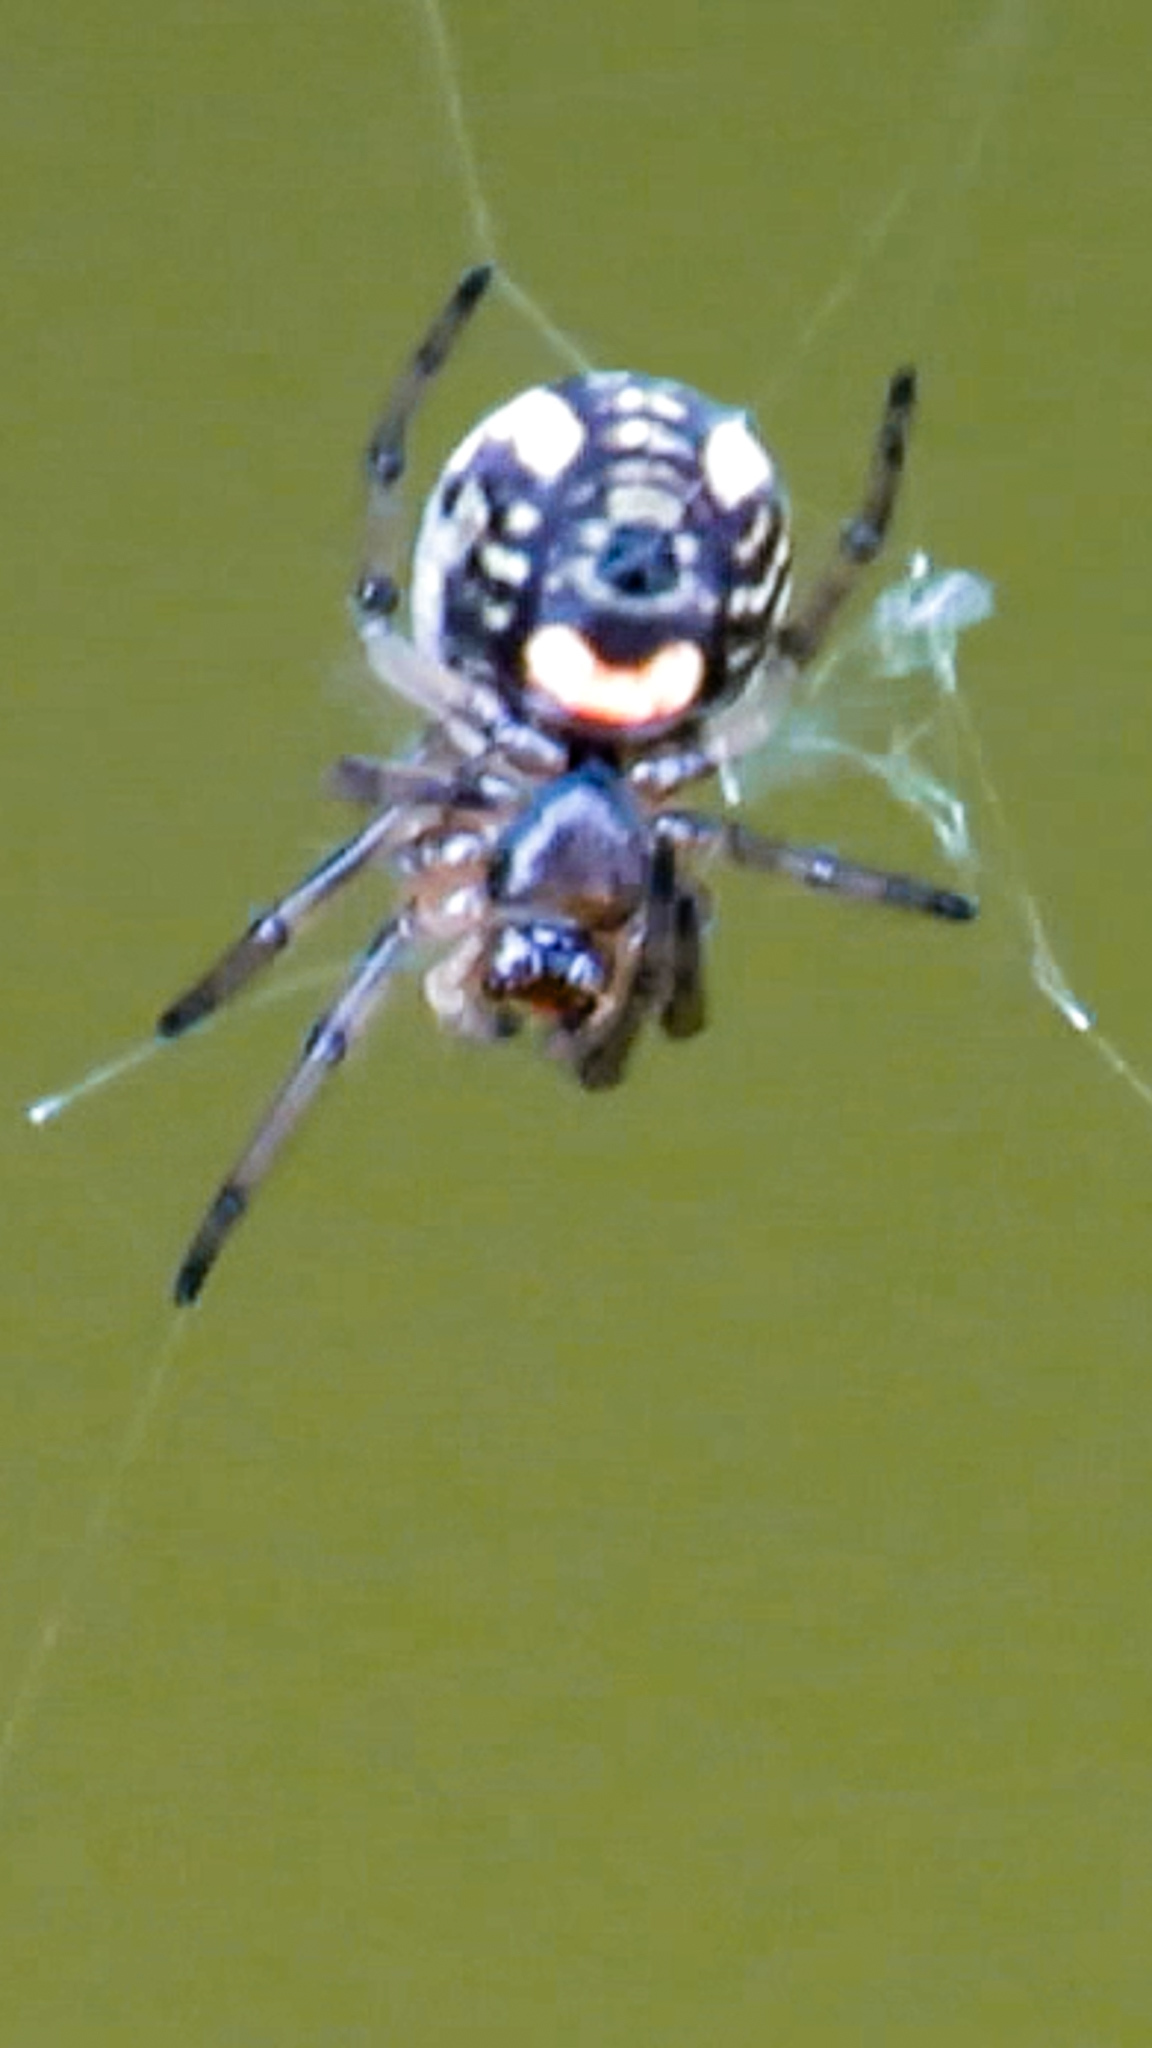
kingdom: Animalia
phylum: Arthropoda
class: Arachnida
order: Araneae
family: Tetragnathidae
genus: Leucauge
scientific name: Leucauge venusta
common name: Longjawed orb weavers
